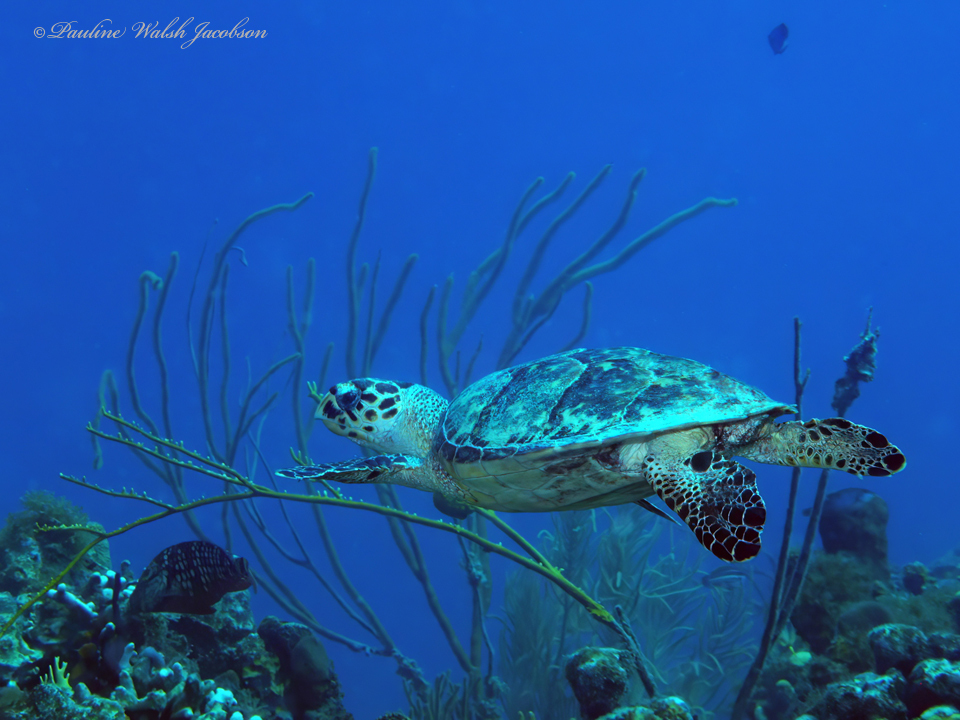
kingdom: Animalia
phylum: Chordata
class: Testudines
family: Cheloniidae
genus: Eretmochelys
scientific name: Eretmochelys imbricata
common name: Hawksbill turtle
